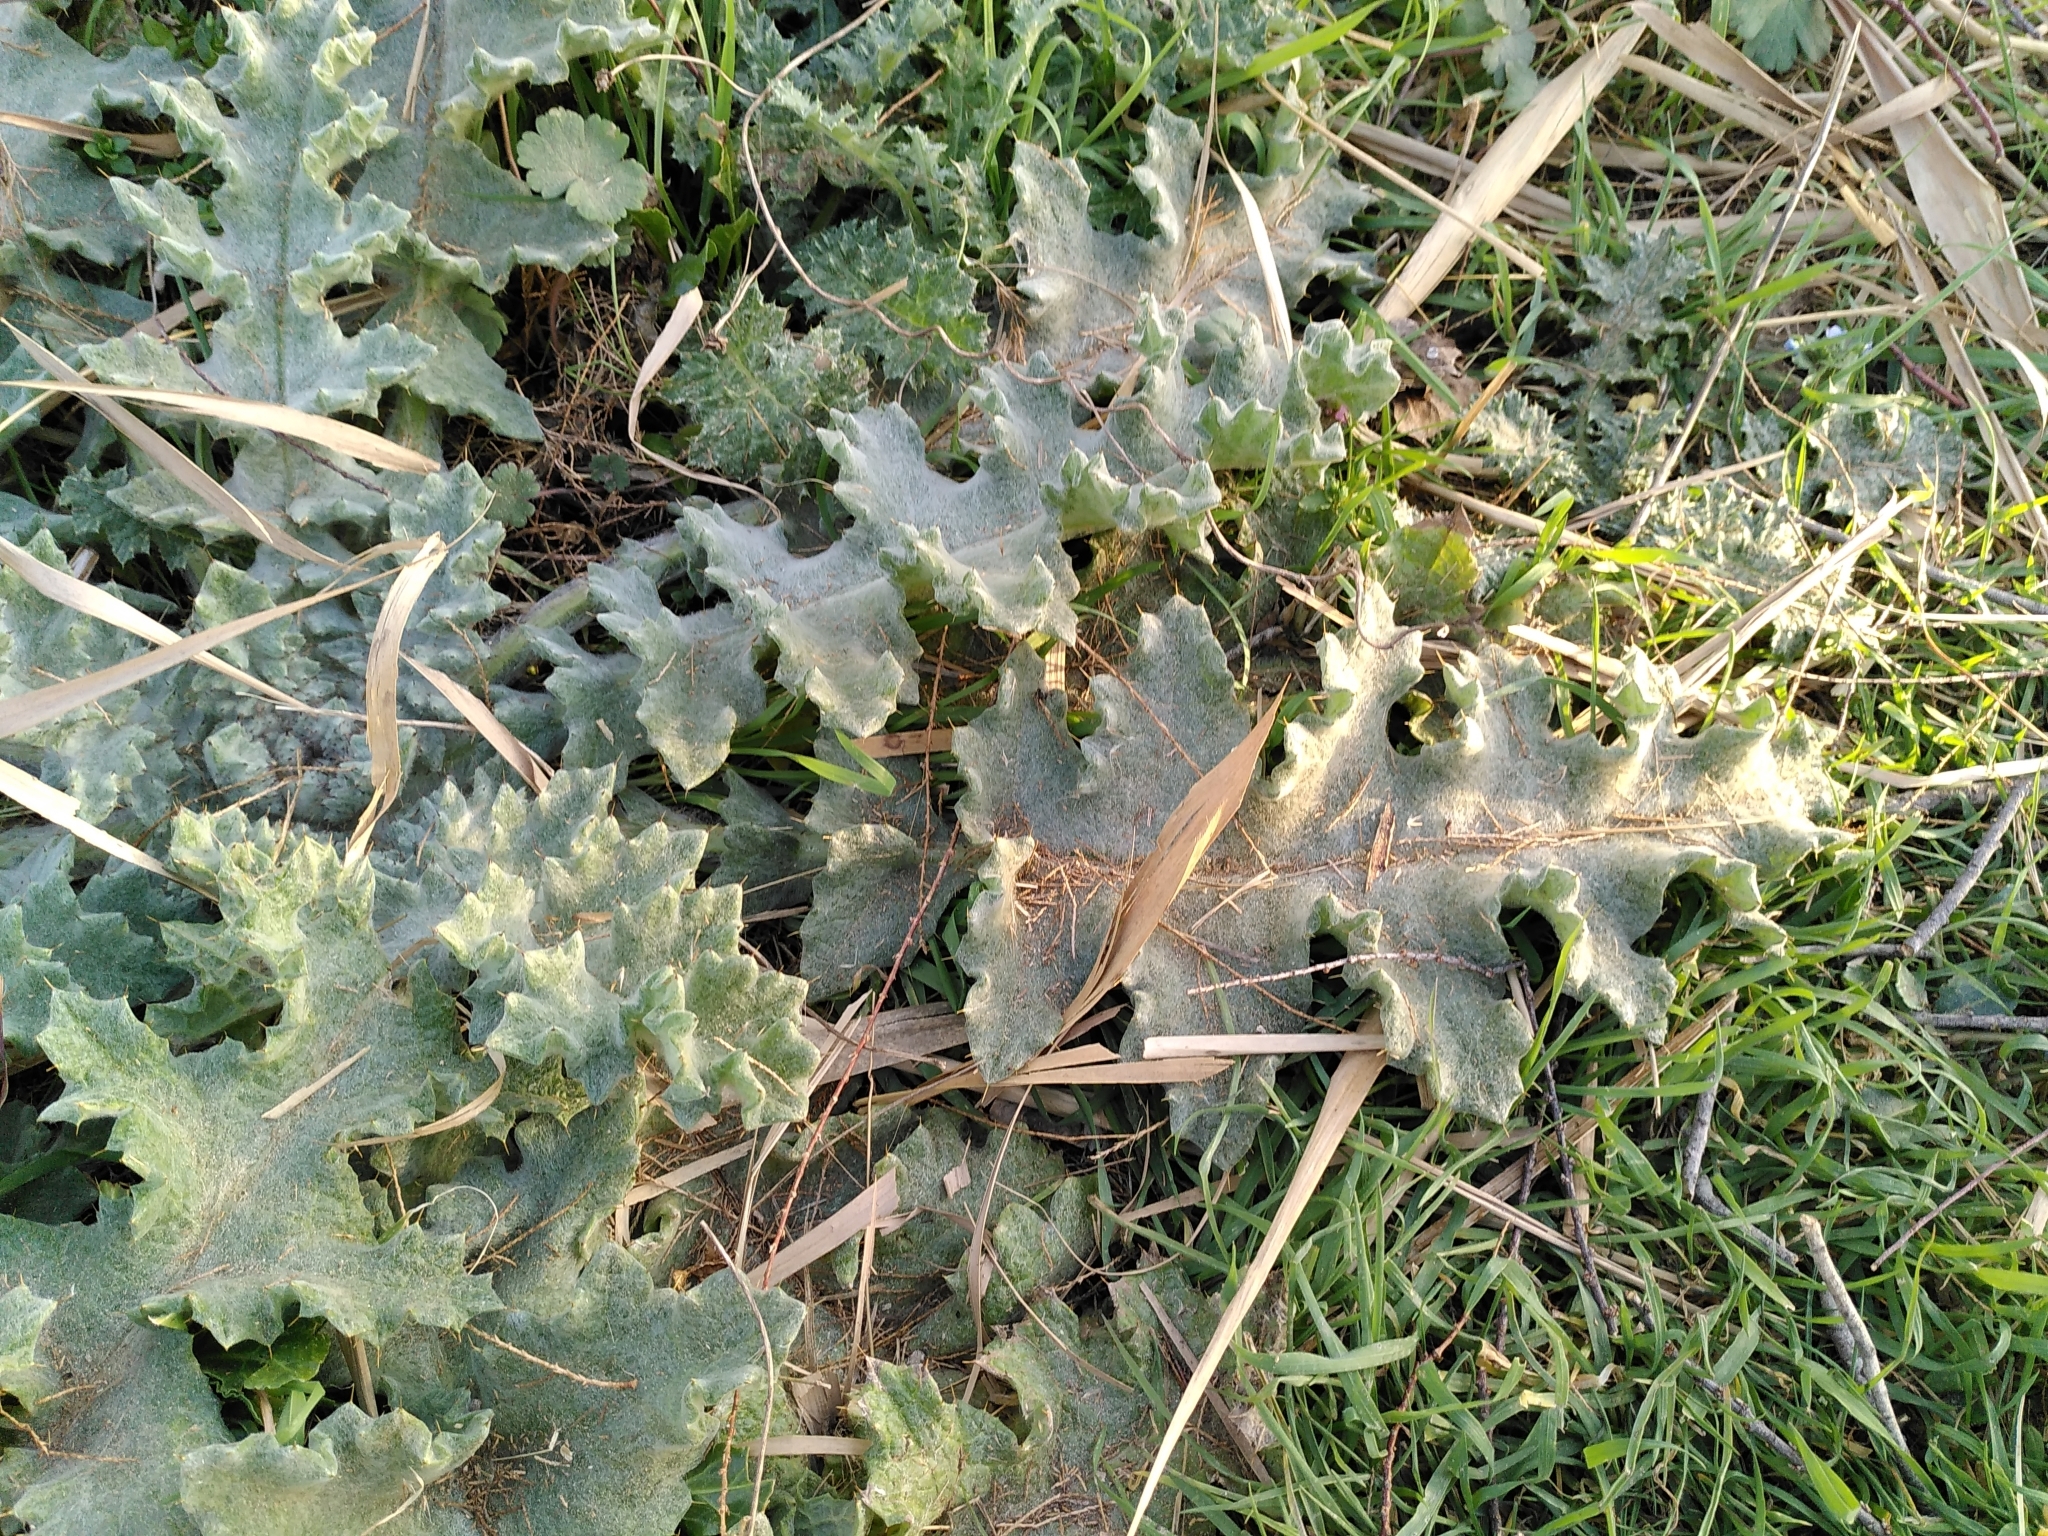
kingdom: Plantae
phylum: Tracheophyta
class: Magnoliopsida
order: Asterales
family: Asteraceae
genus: Onopordum
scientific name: Onopordum illyricum
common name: Illyrian thistle
